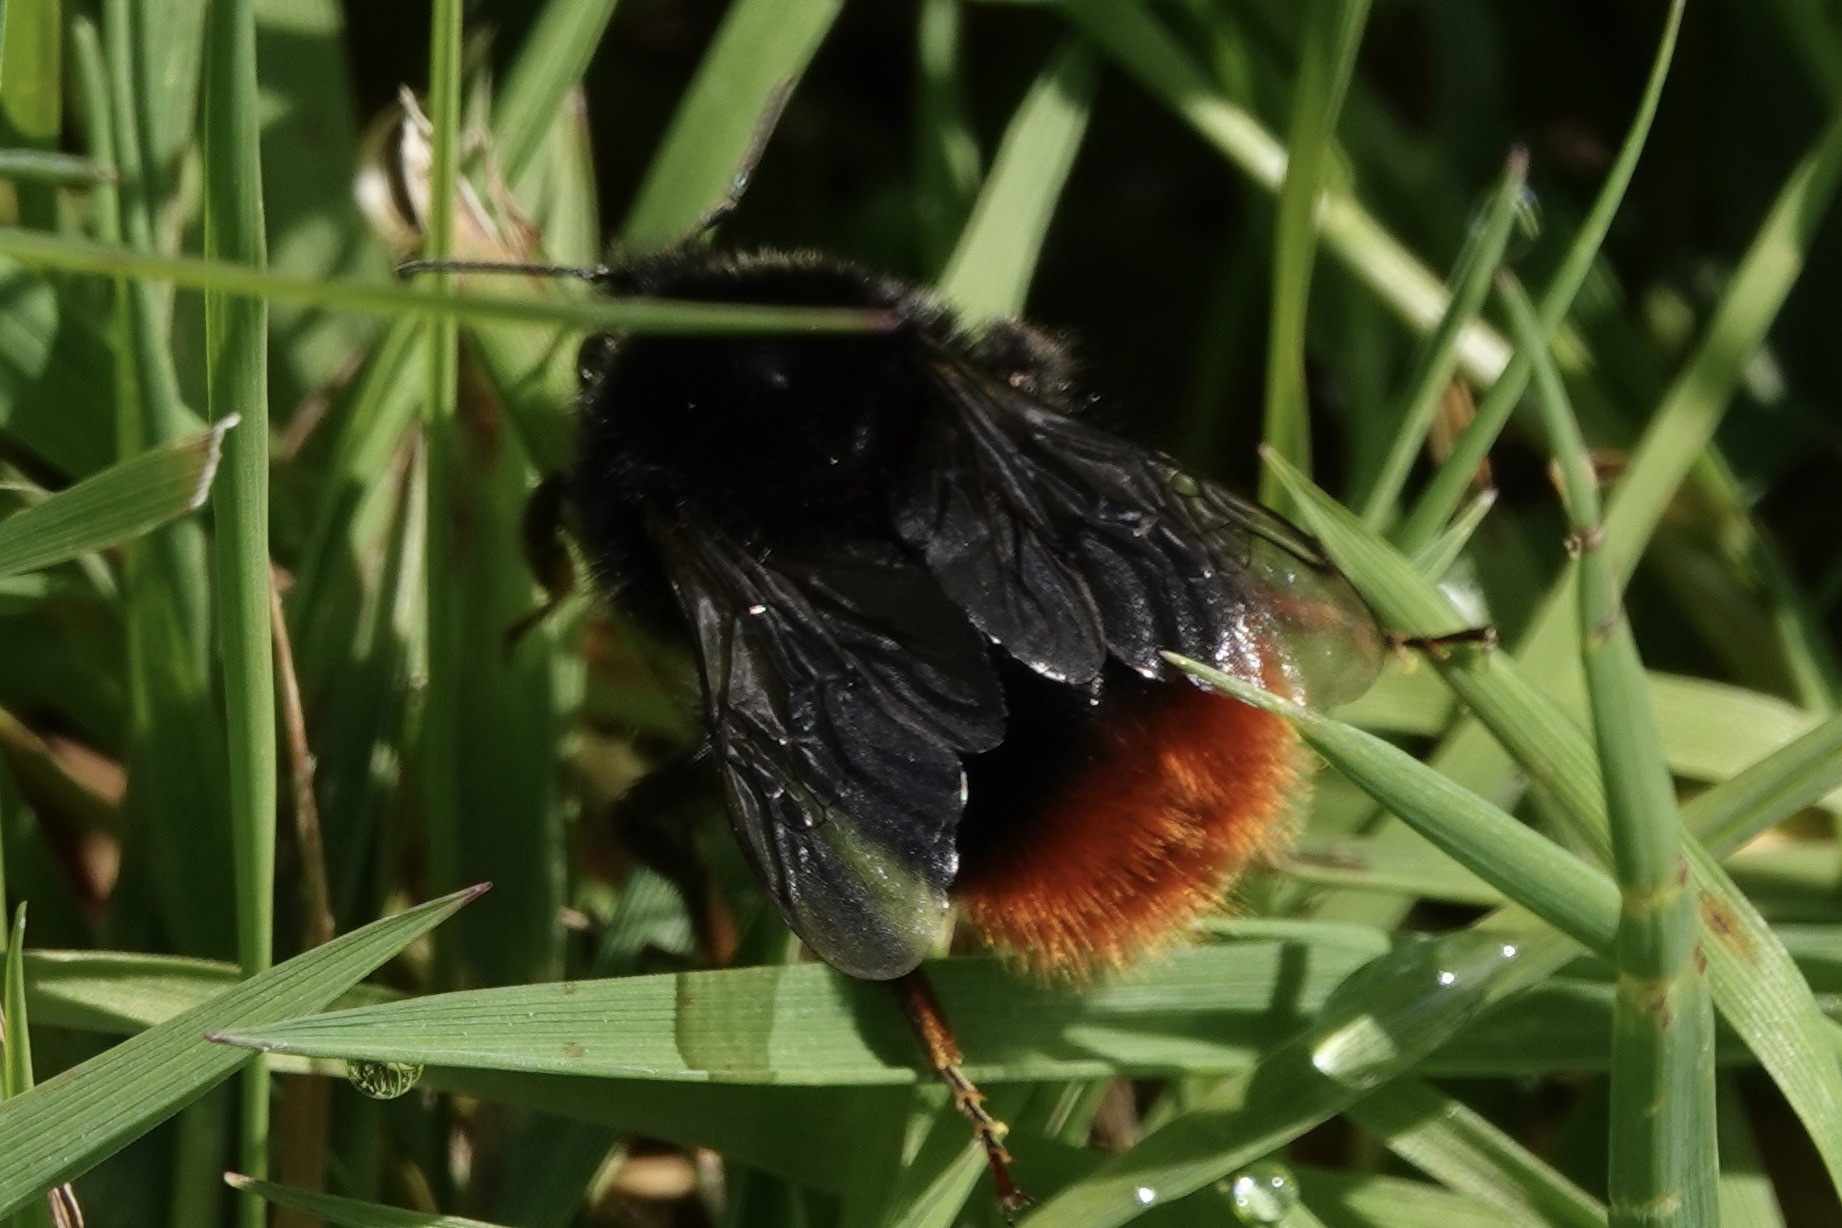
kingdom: Animalia
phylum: Arthropoda
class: Insecta
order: Hymenoptera
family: Apidae
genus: Bombus
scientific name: Bombus lapidarius
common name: Large red-tailed humble-bee
